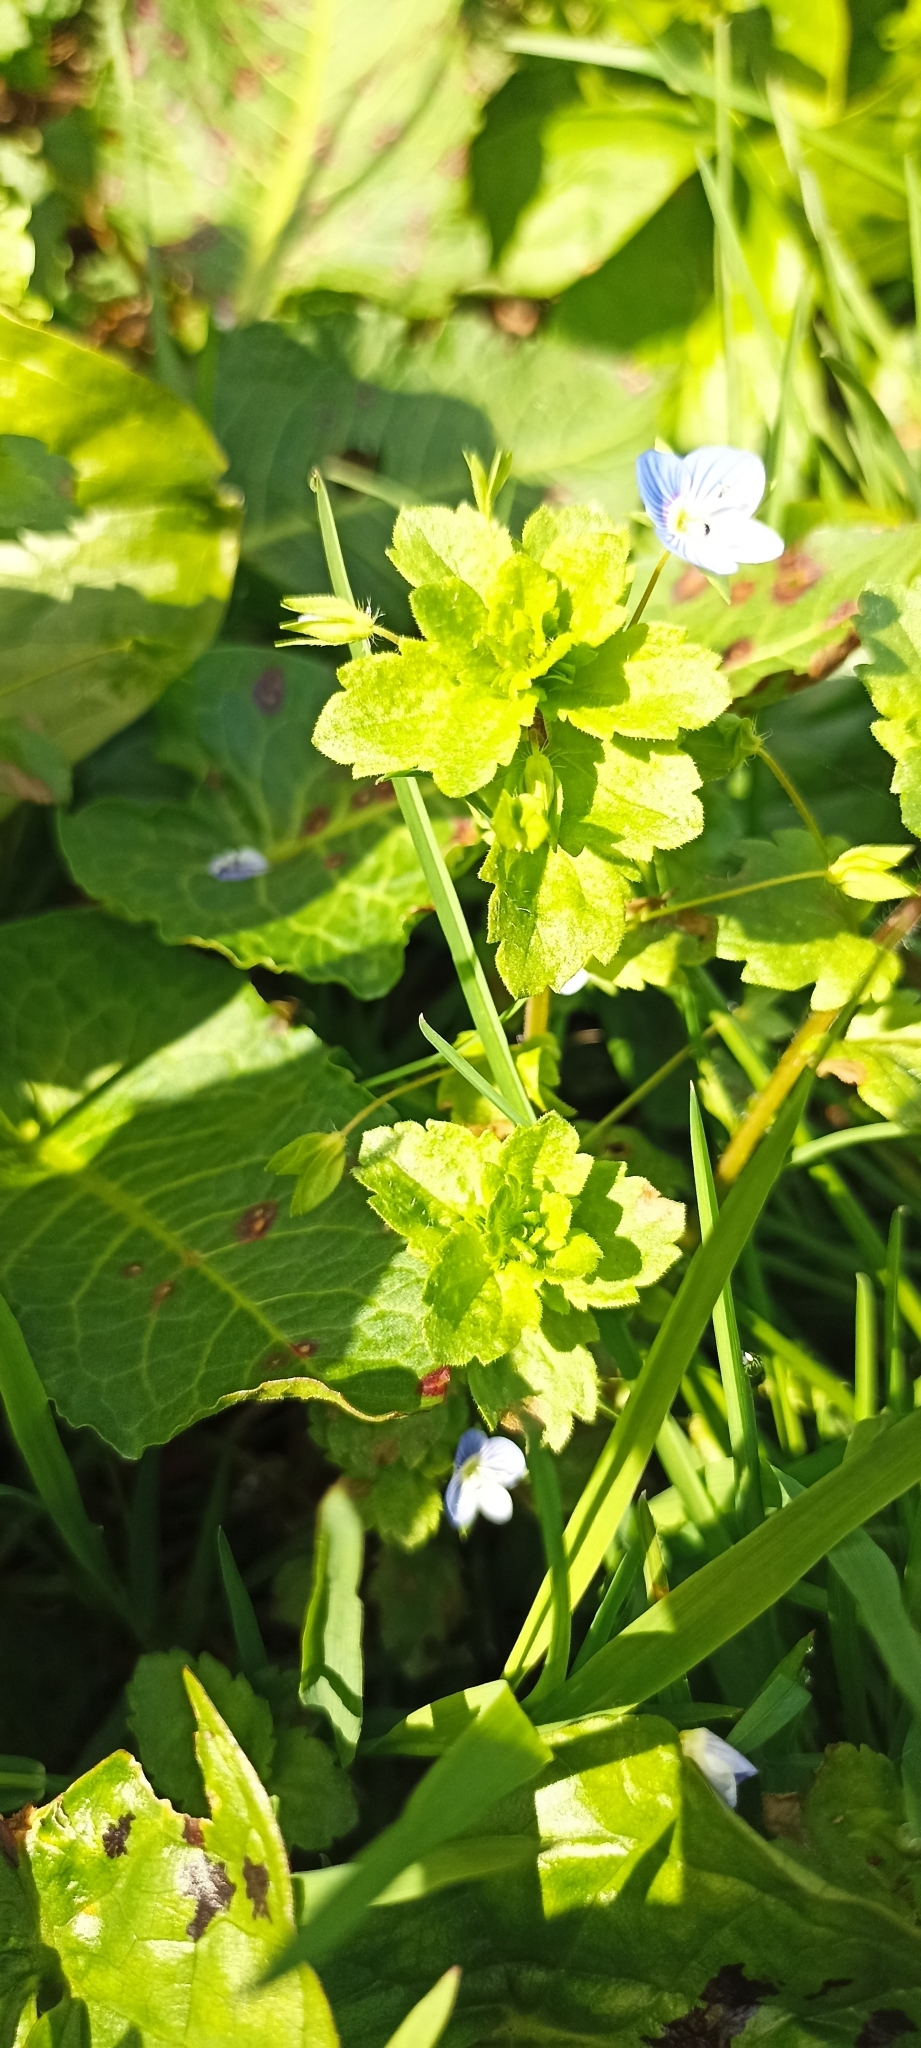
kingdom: Plantae
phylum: Tracheophyta
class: Magnoliopsida
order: Lamiales
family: Plantaginaceae
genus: Veronica
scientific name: Veronica persica
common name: Common field-speedwell
